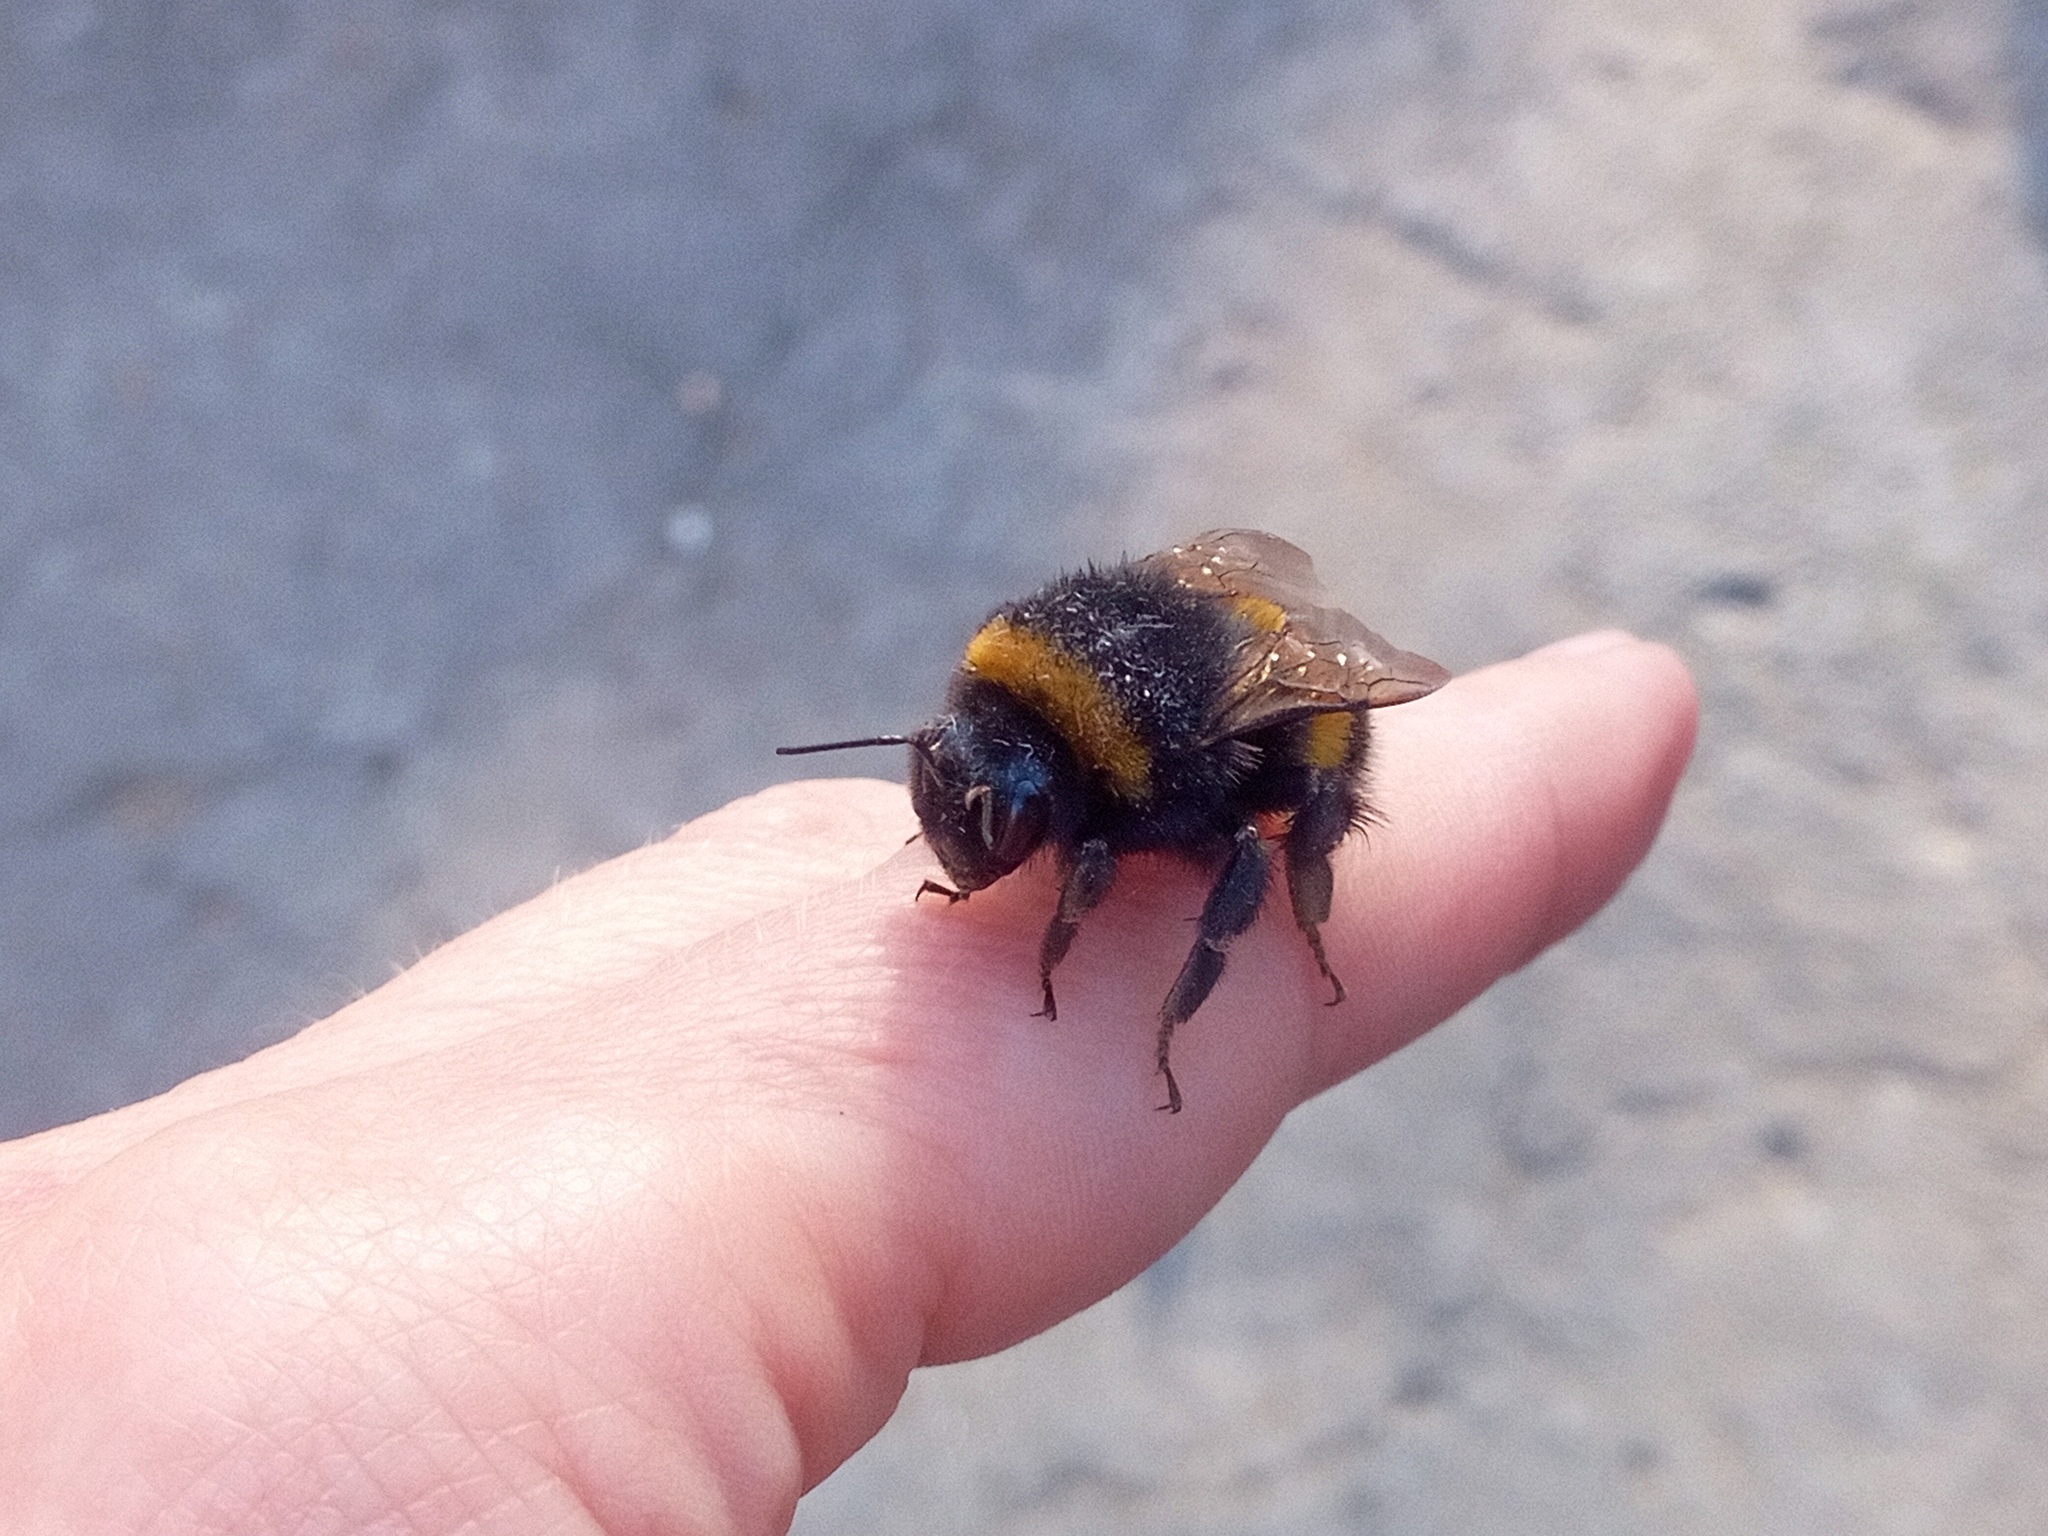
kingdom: Animalia
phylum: Arthropoda
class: Insecta
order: Hymenoptera
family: Apidae
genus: Bombus
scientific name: Bombus
